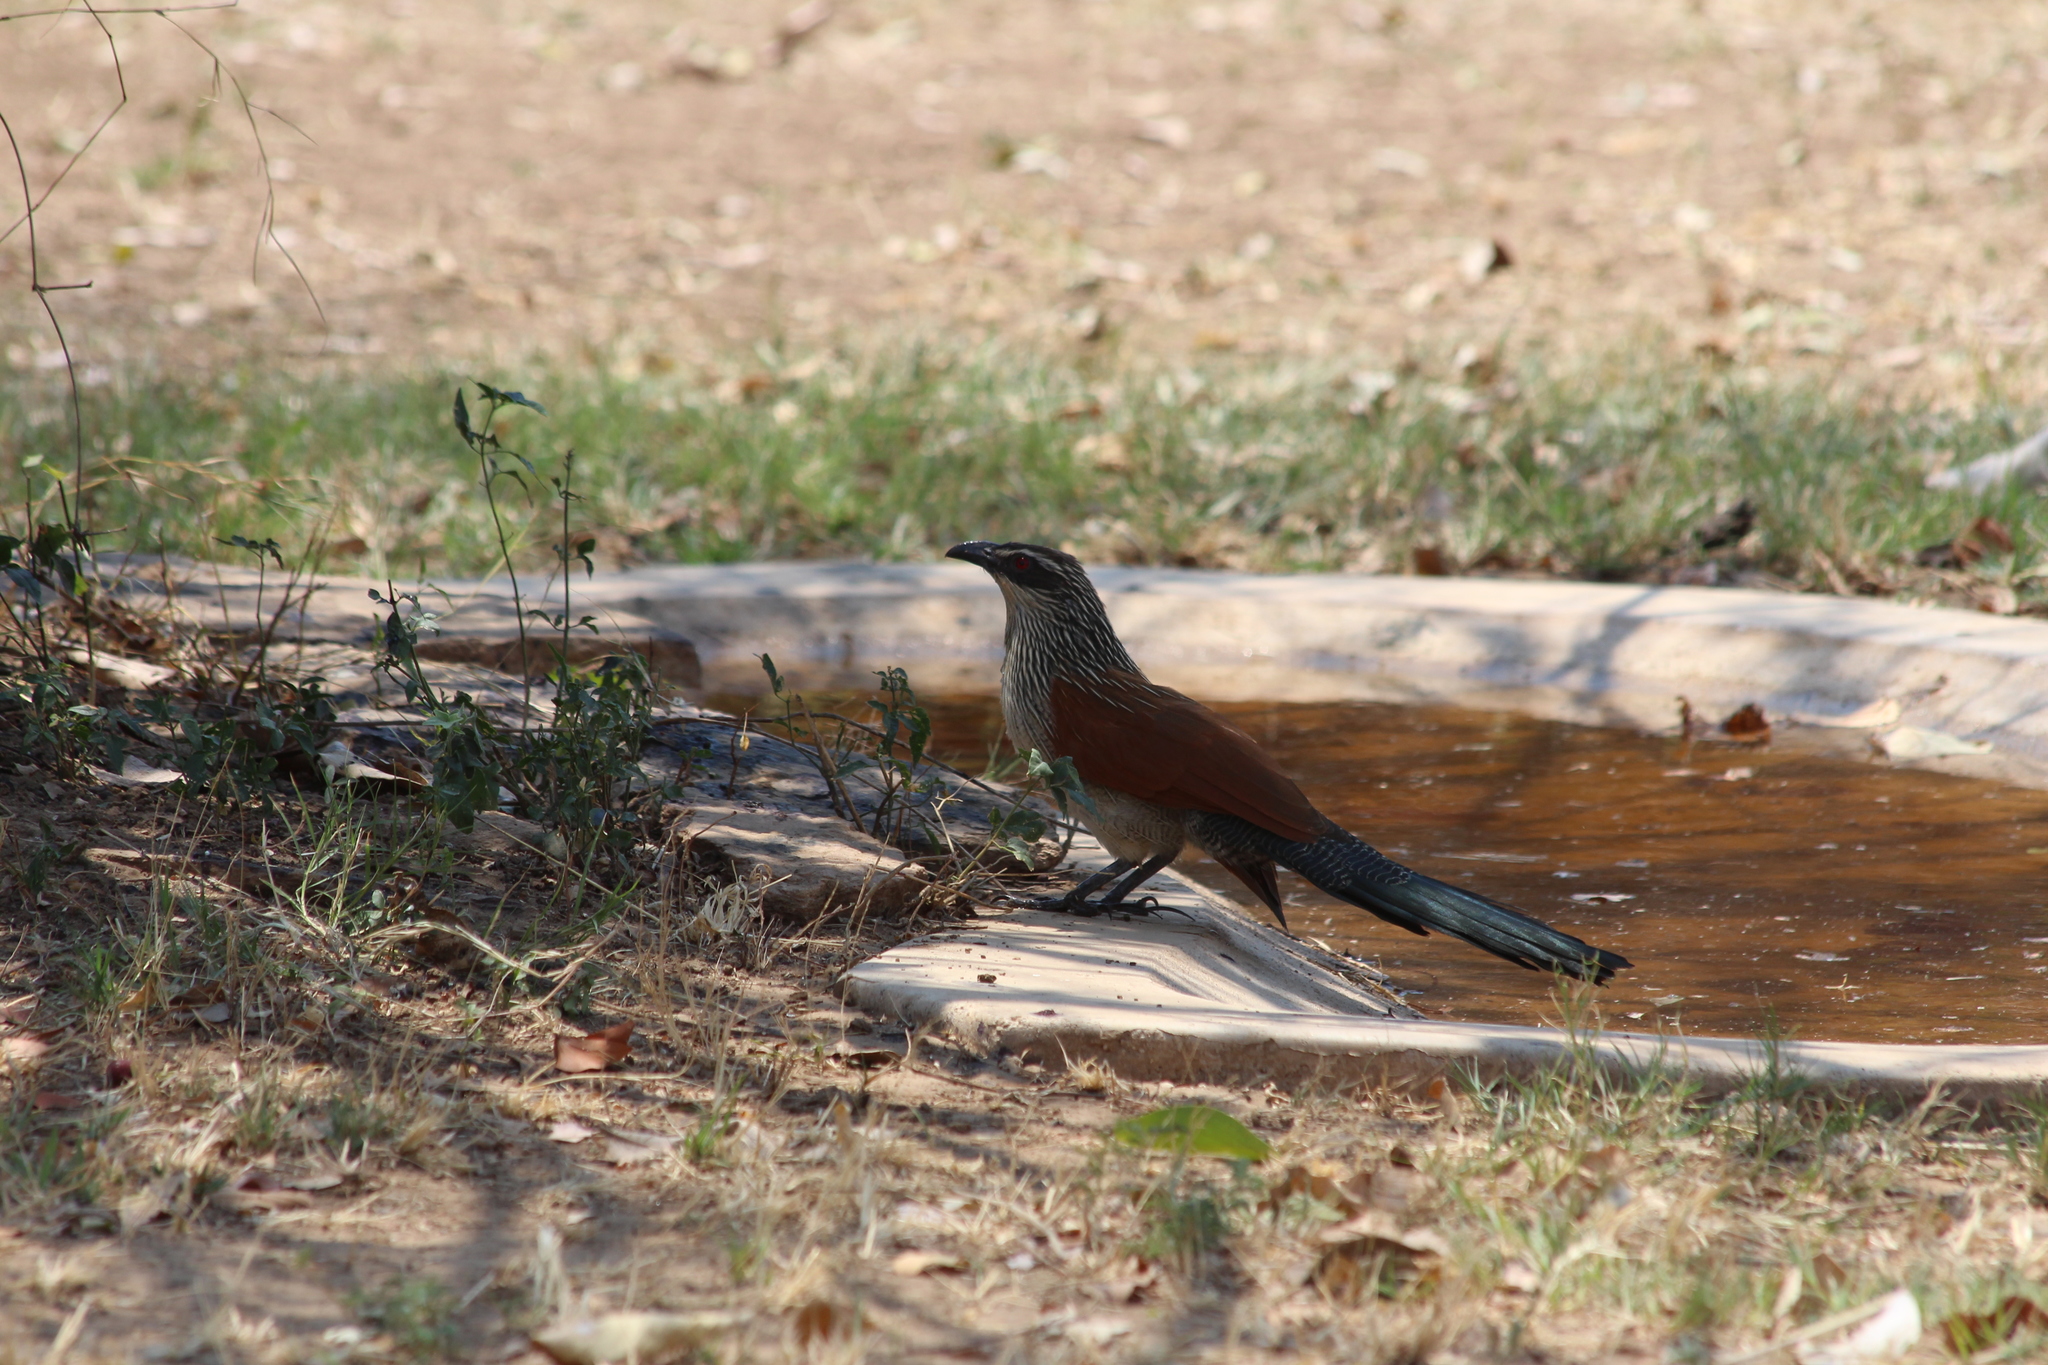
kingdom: Animalia
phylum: Chordata
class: Aves
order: Cuculiformes
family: Cuculidae
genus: Centropus
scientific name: Centropus superciliosus
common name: White-browed coucal
